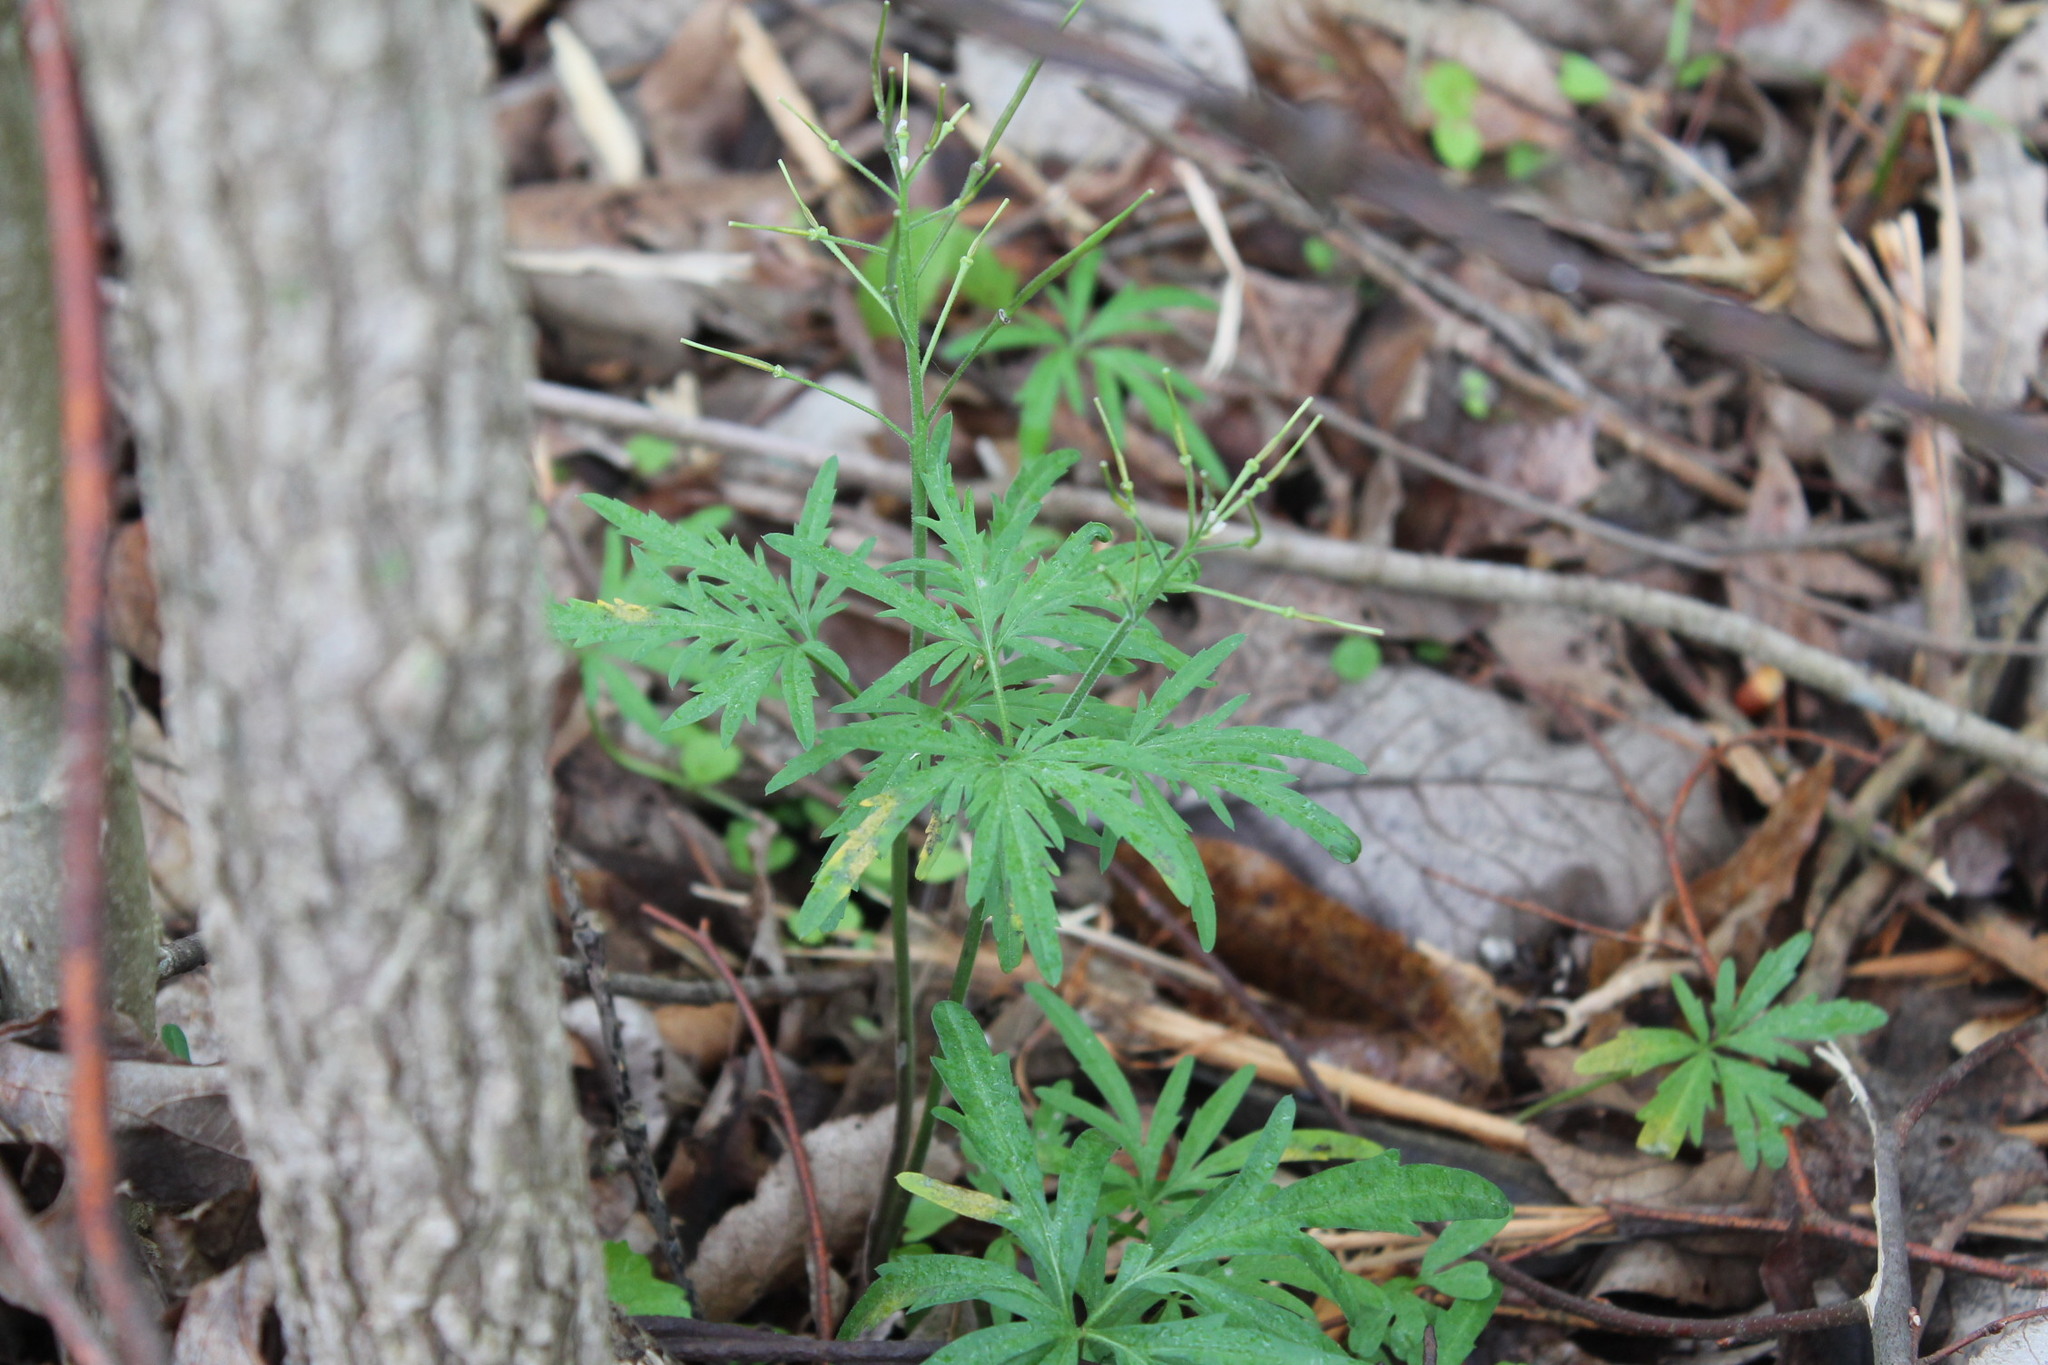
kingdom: Plantae
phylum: Tracheophyta
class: Magnoliopsida
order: Brassicales
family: Brassicaceae
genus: Cardamine
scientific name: Cardamine concatenata
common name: Cut-leaf toothcup
